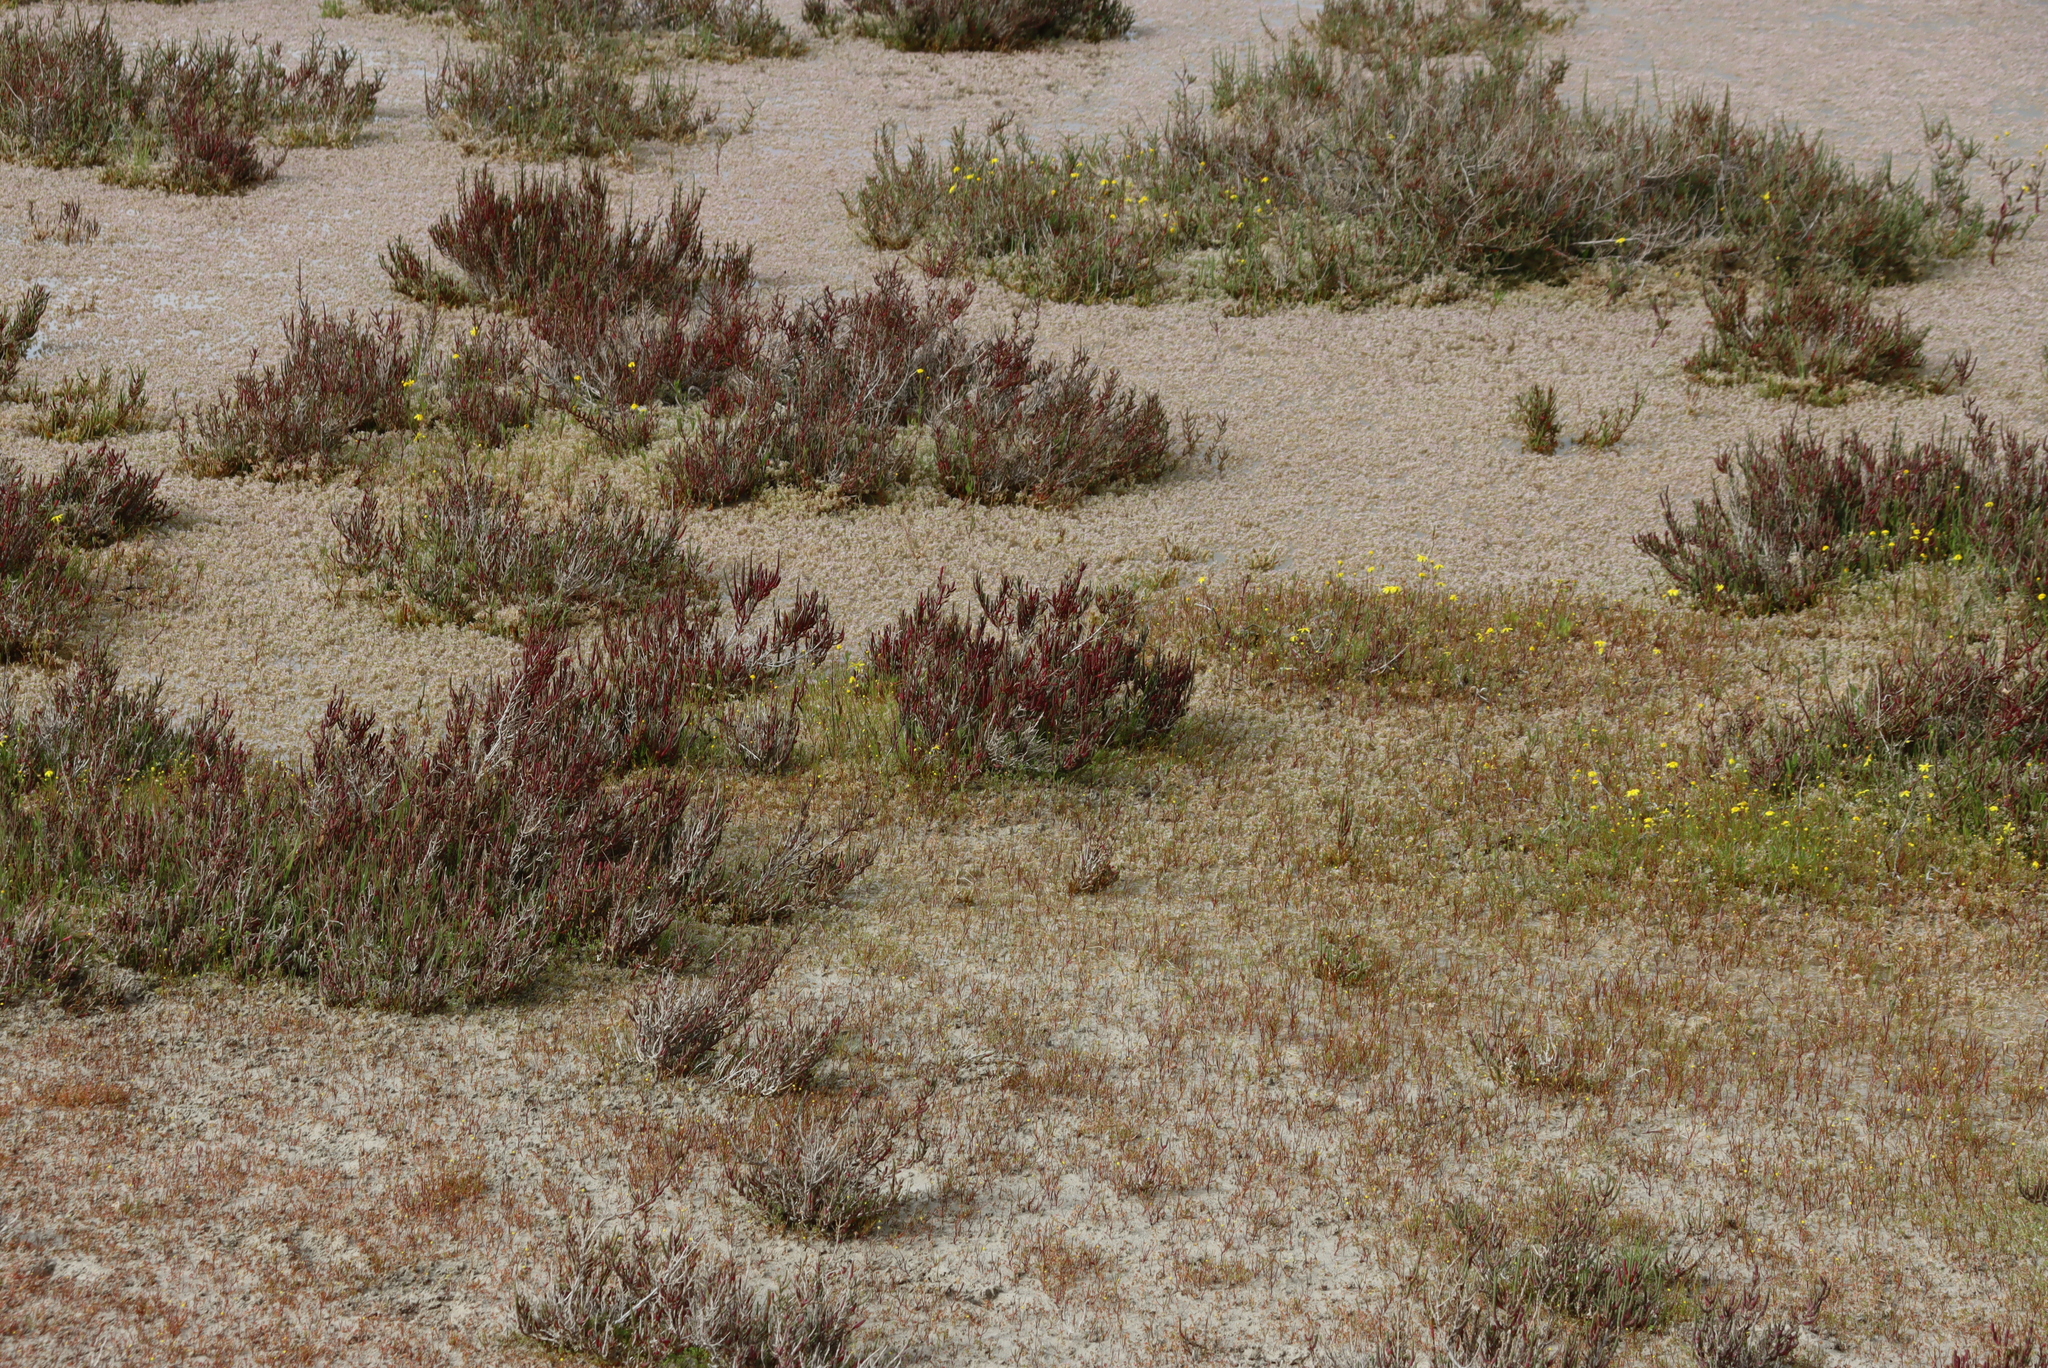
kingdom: Plantae
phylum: Tracheophyta
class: Magnoliopsida
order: Caryophyllales
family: Amaranthaceae
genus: Salicornia
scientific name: Salicornia pillansii
